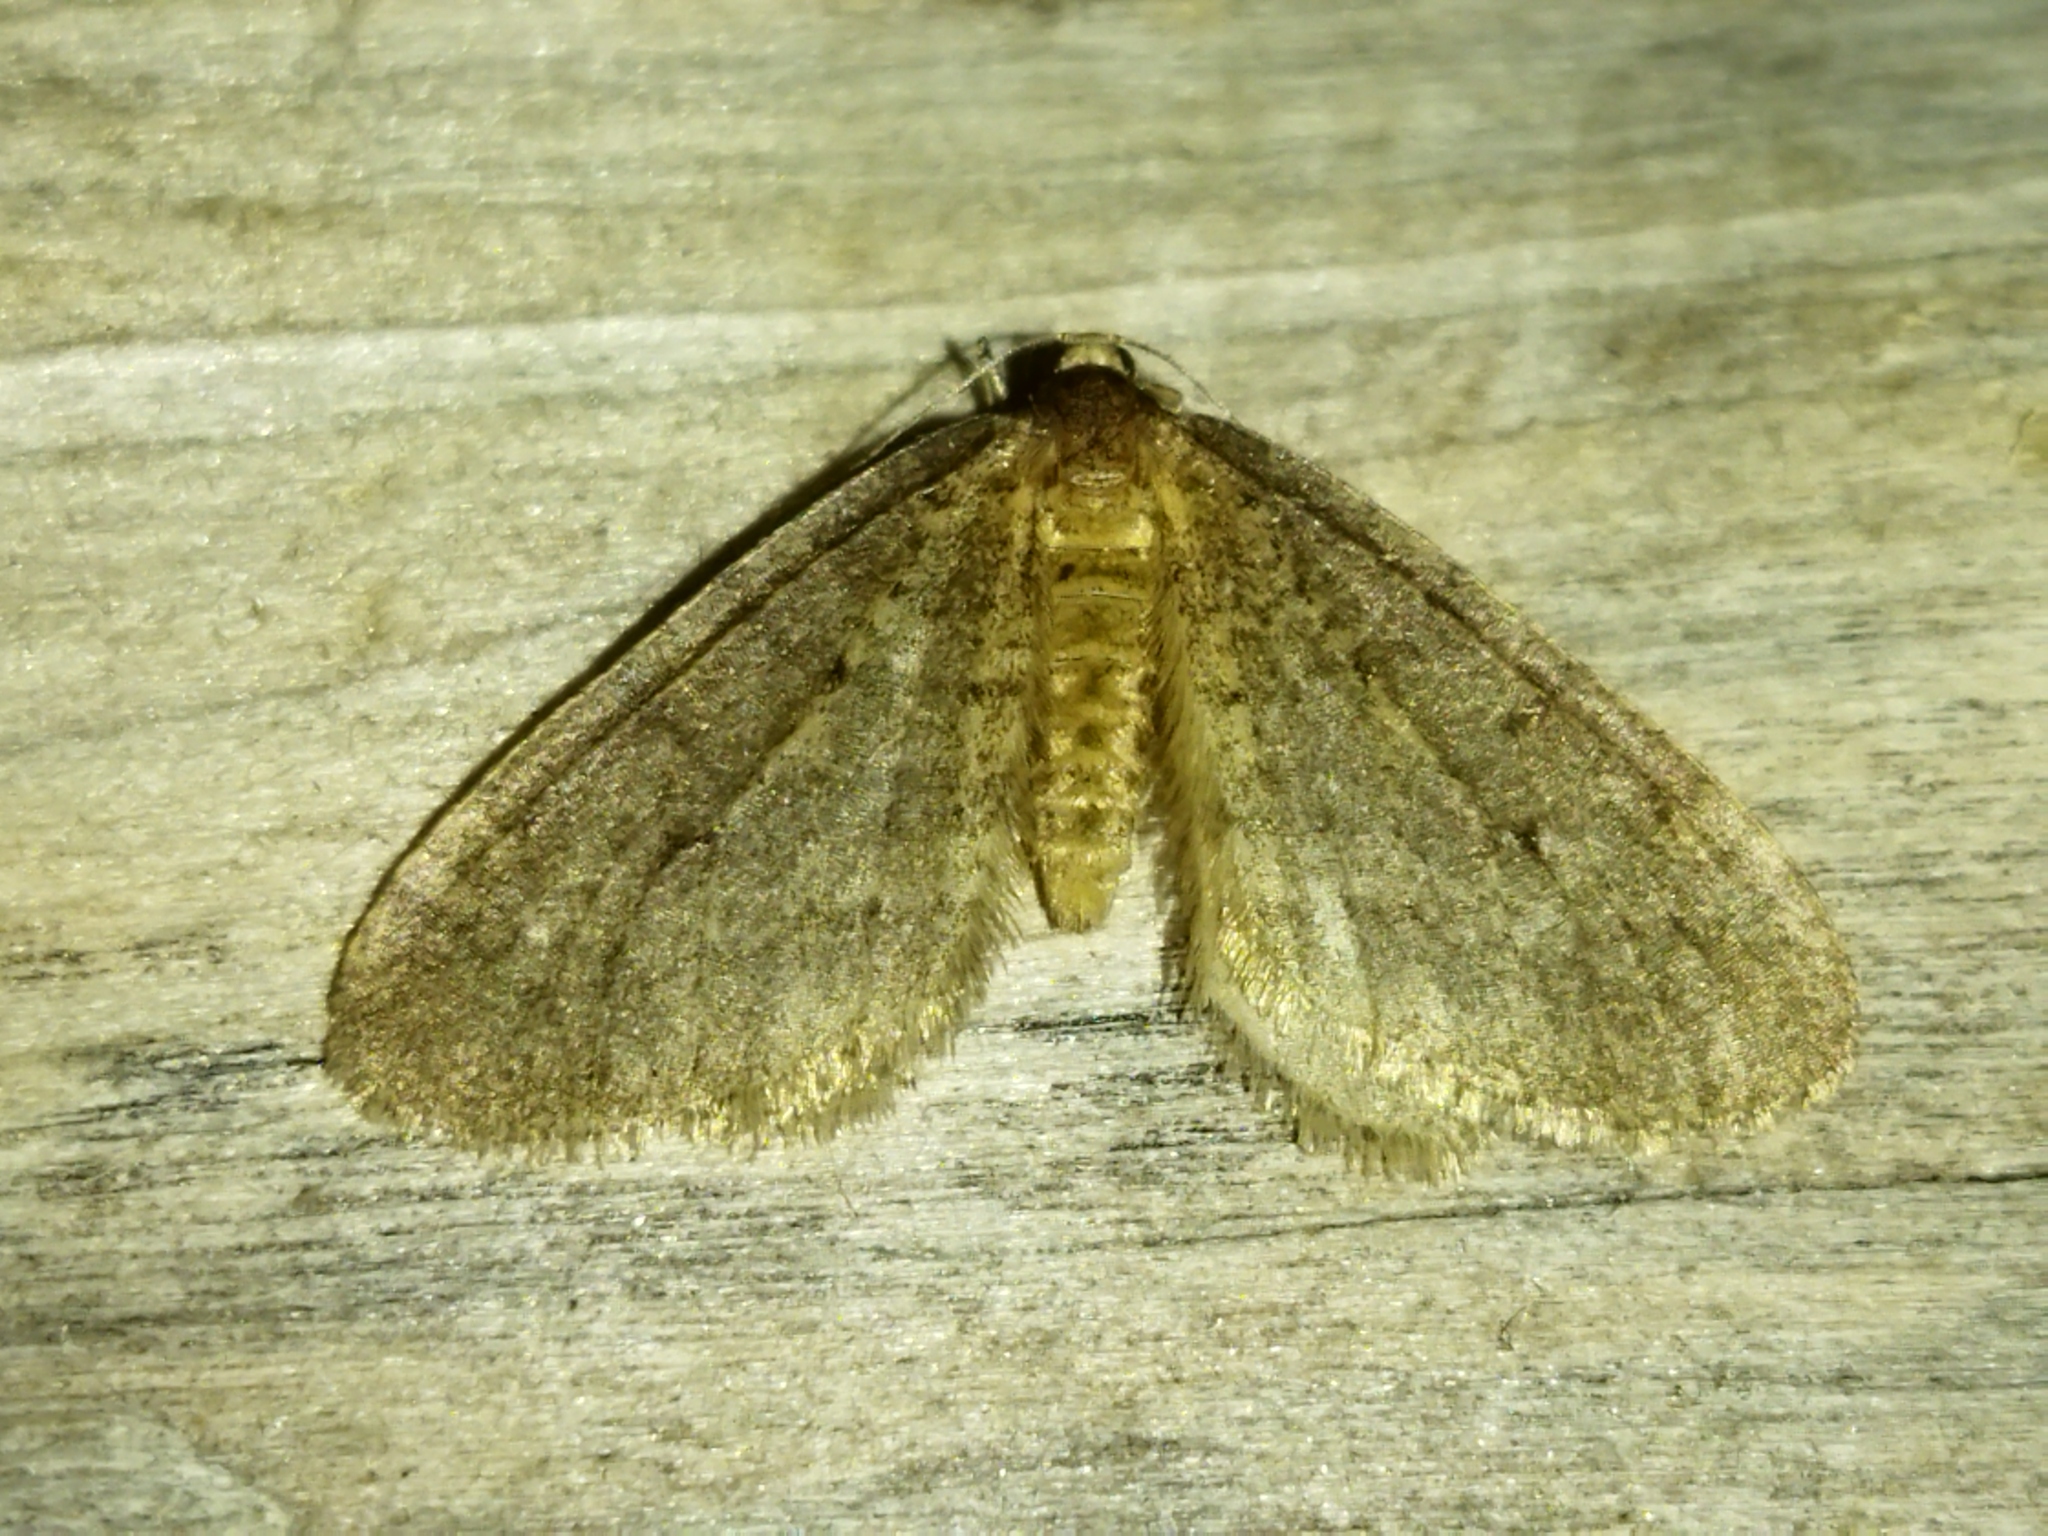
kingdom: Animalia
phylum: Arthropoda
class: Insecta
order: Lepidoptera
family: Geometridae
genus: Operophtera
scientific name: Operophtera brumata
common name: Winter moth
